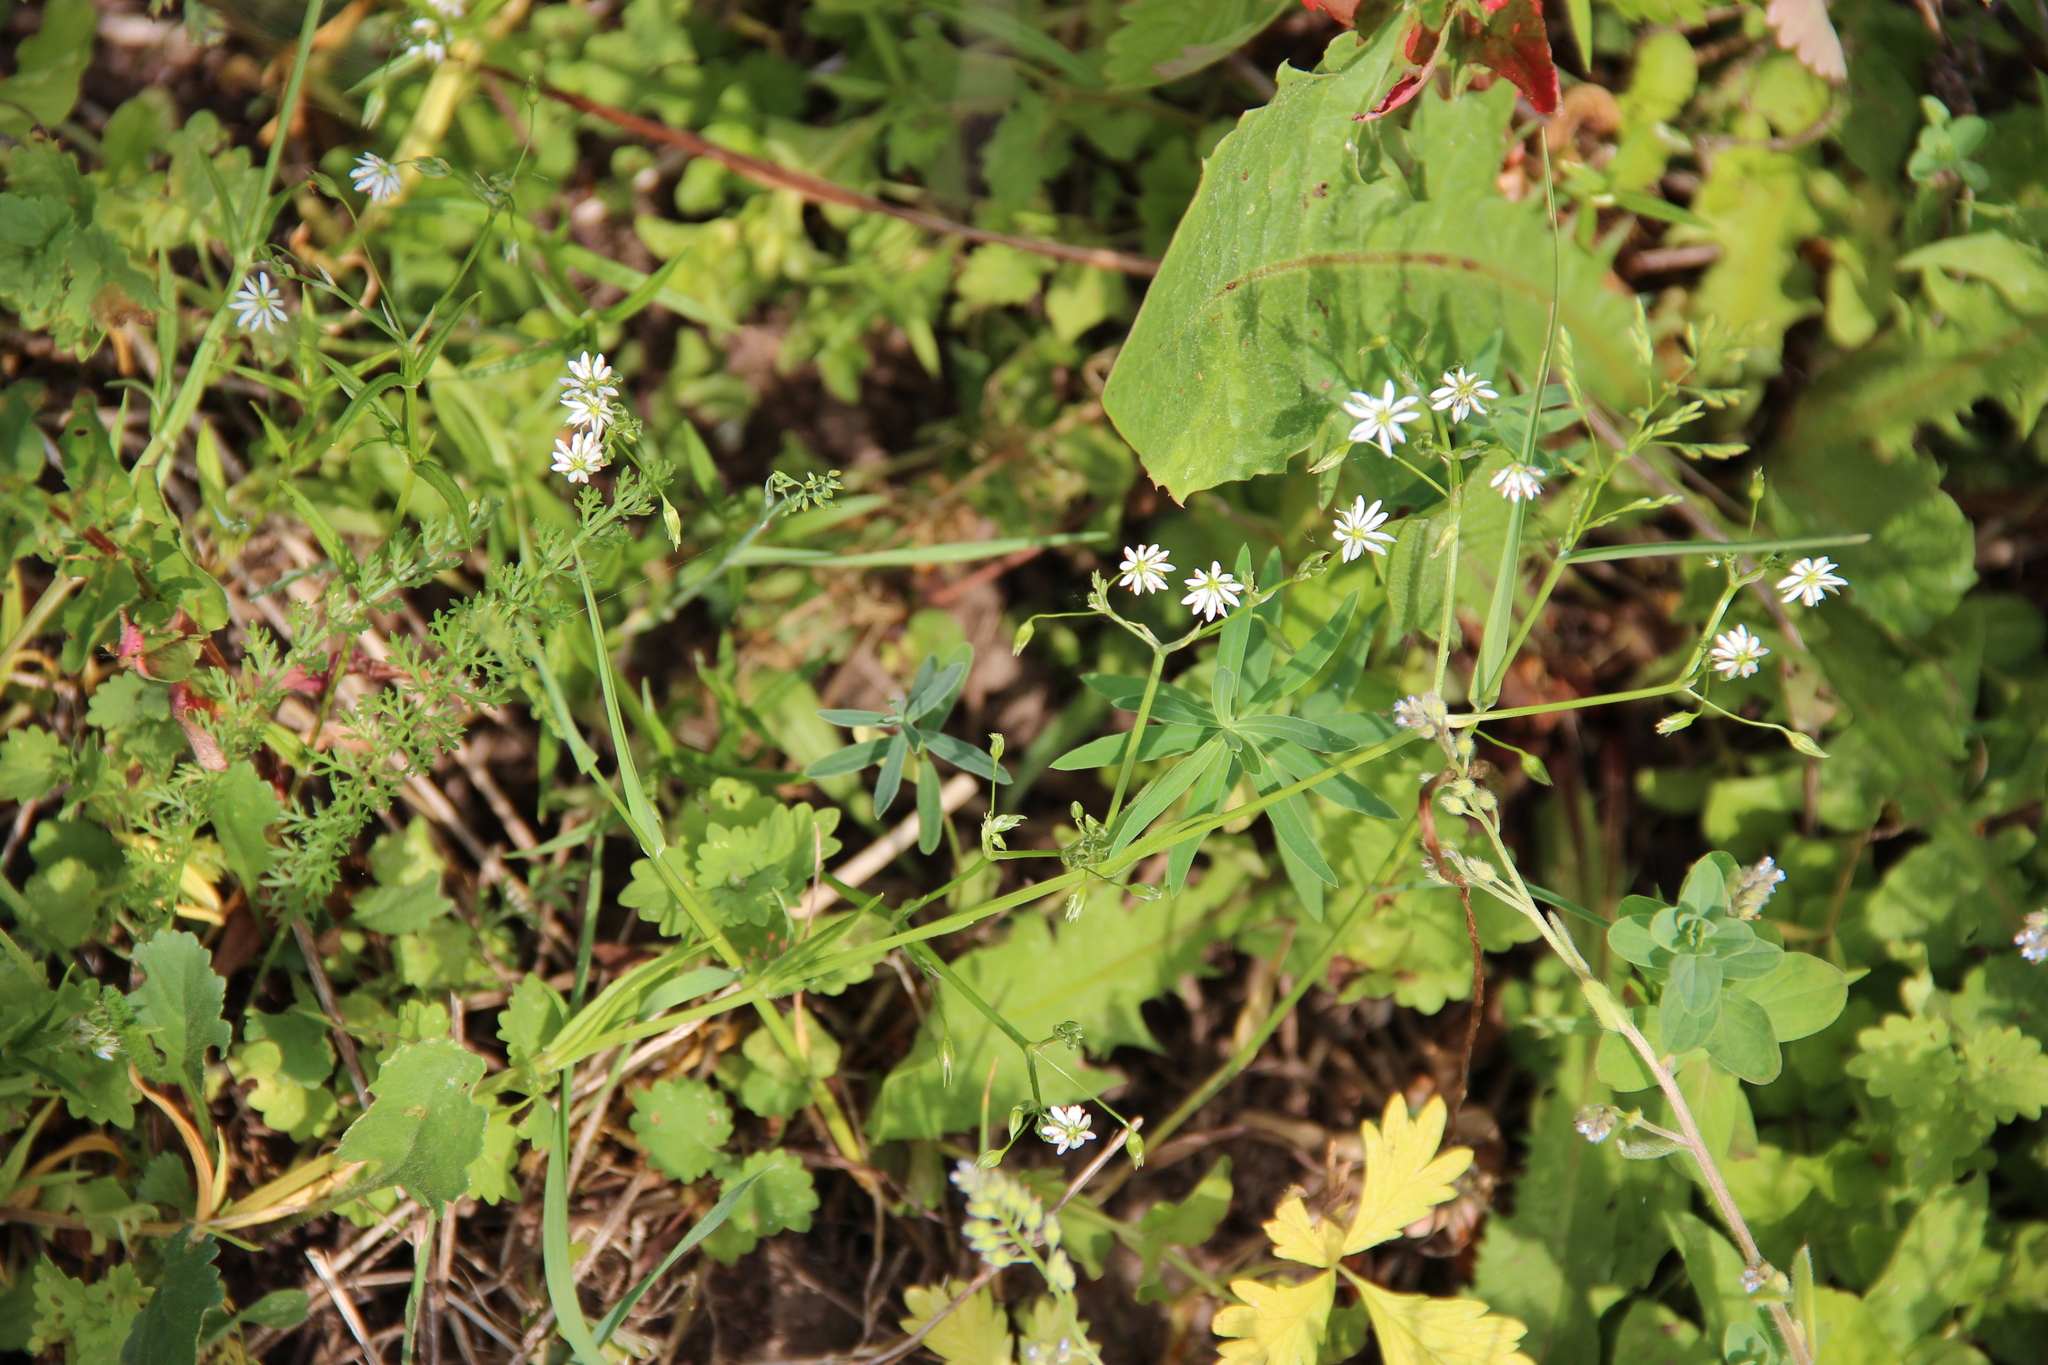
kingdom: Plantae
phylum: Tracheophyta
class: Magnoliopsida
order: Caryophyllales
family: Caryophyllaceae
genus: Stellaria
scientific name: Stellaria graminea
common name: Grass-like starwort
